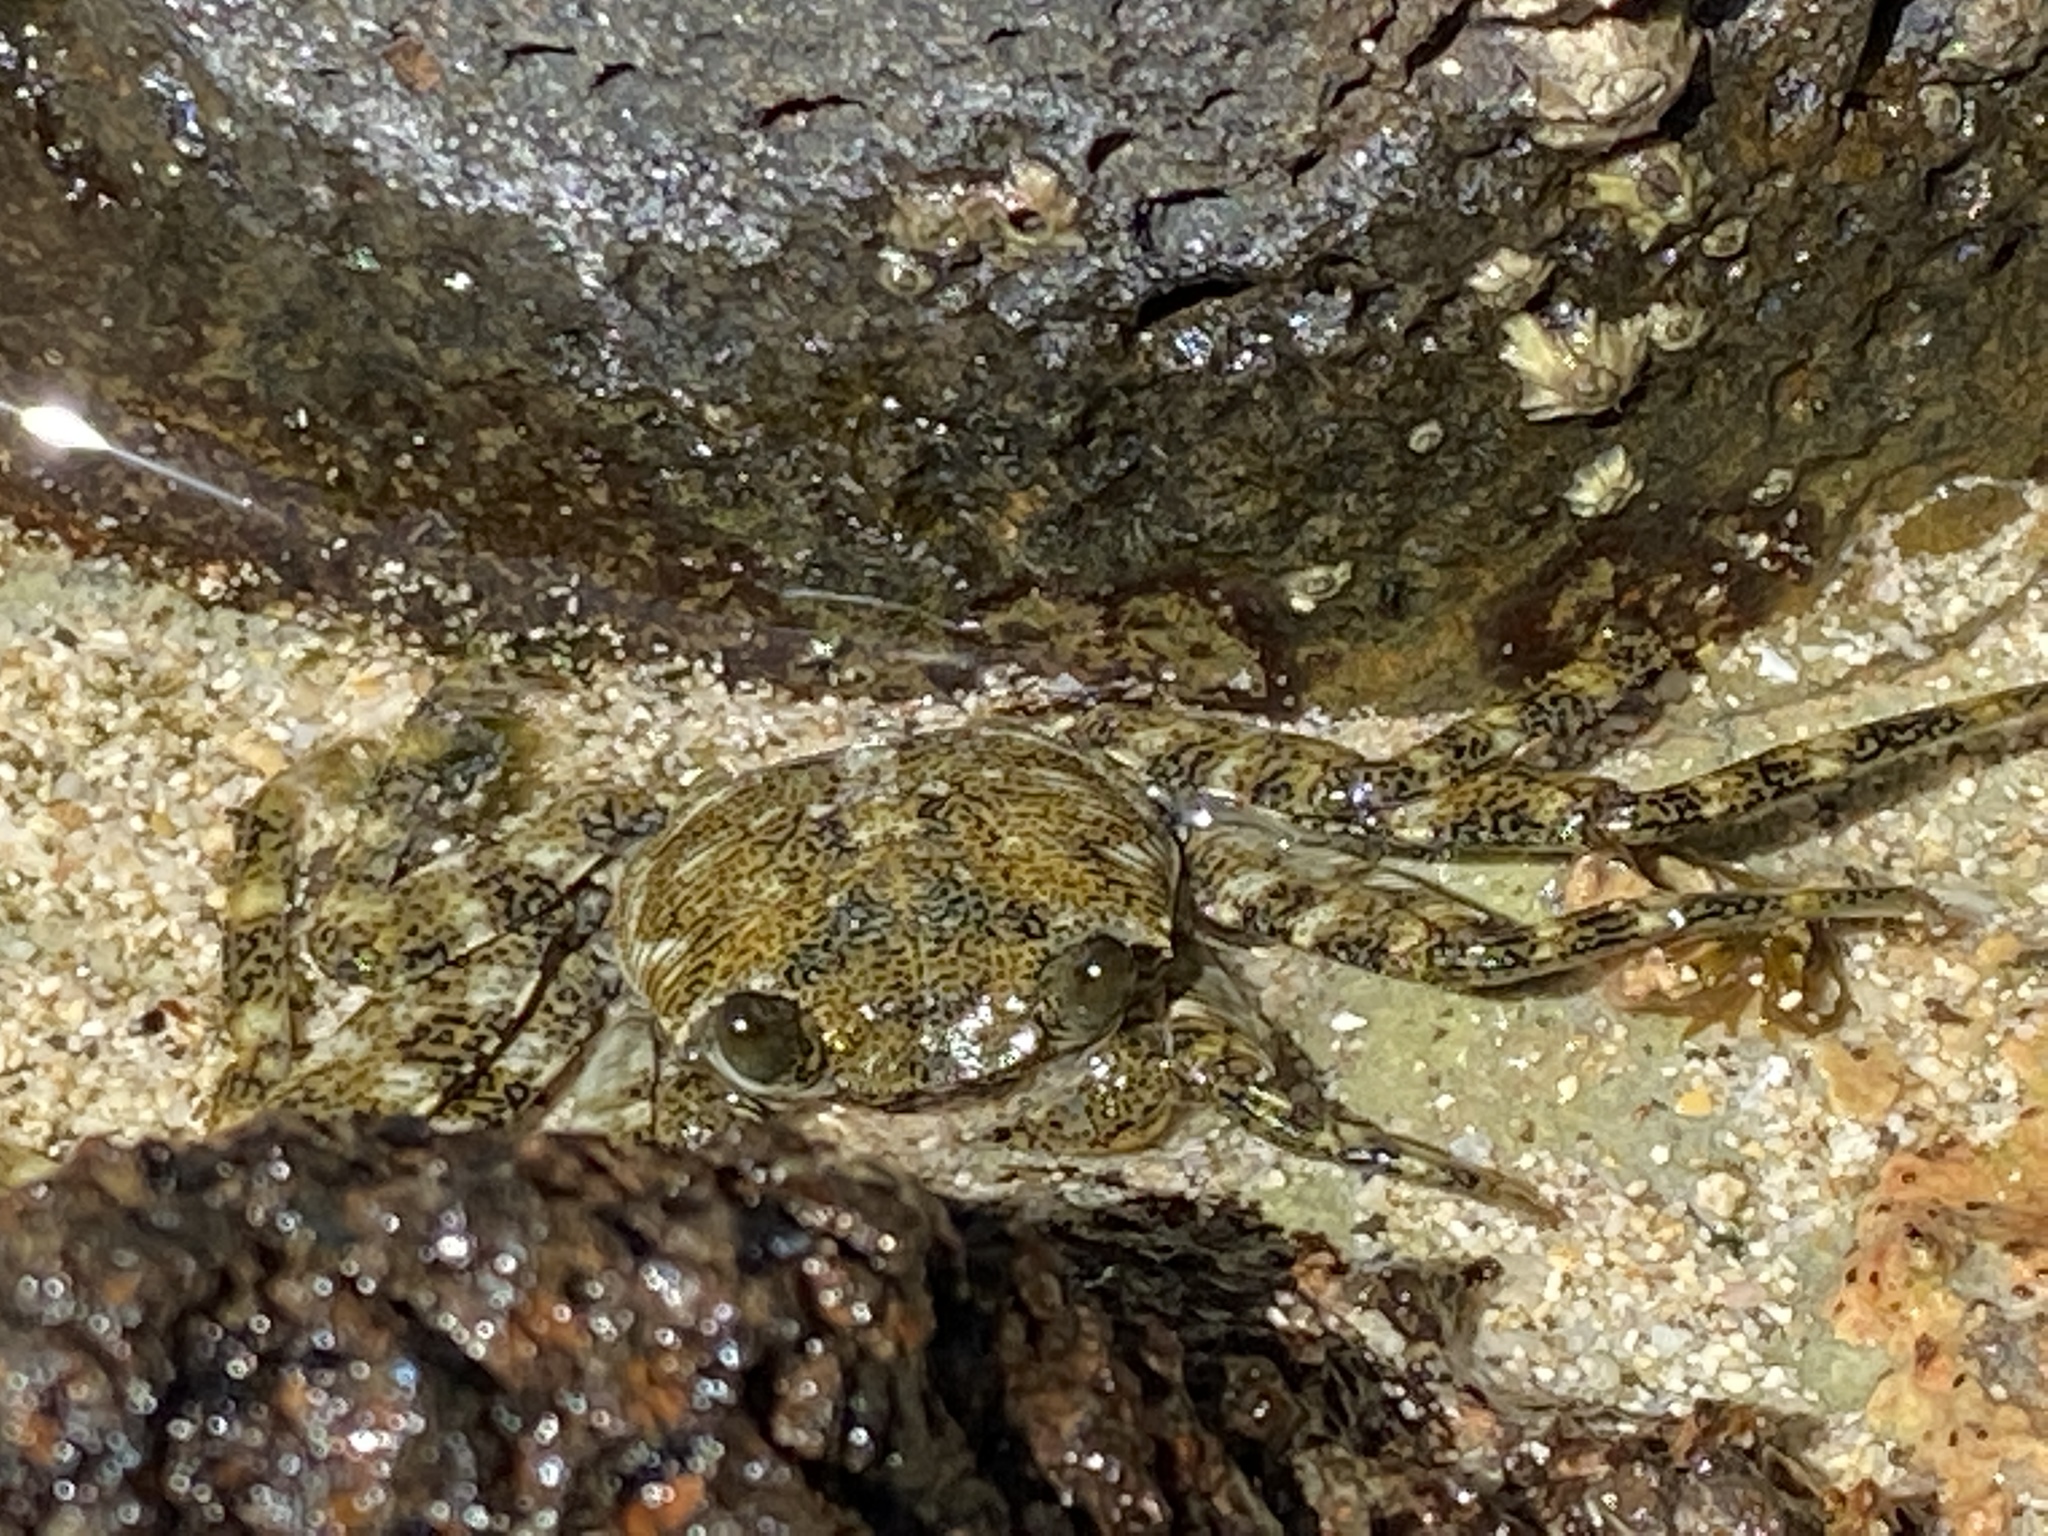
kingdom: Animalia
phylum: Arthropoda
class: Malacostraca
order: Decapoda
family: Grapsidae
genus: Grapsus
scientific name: Grapsus adscensionis
